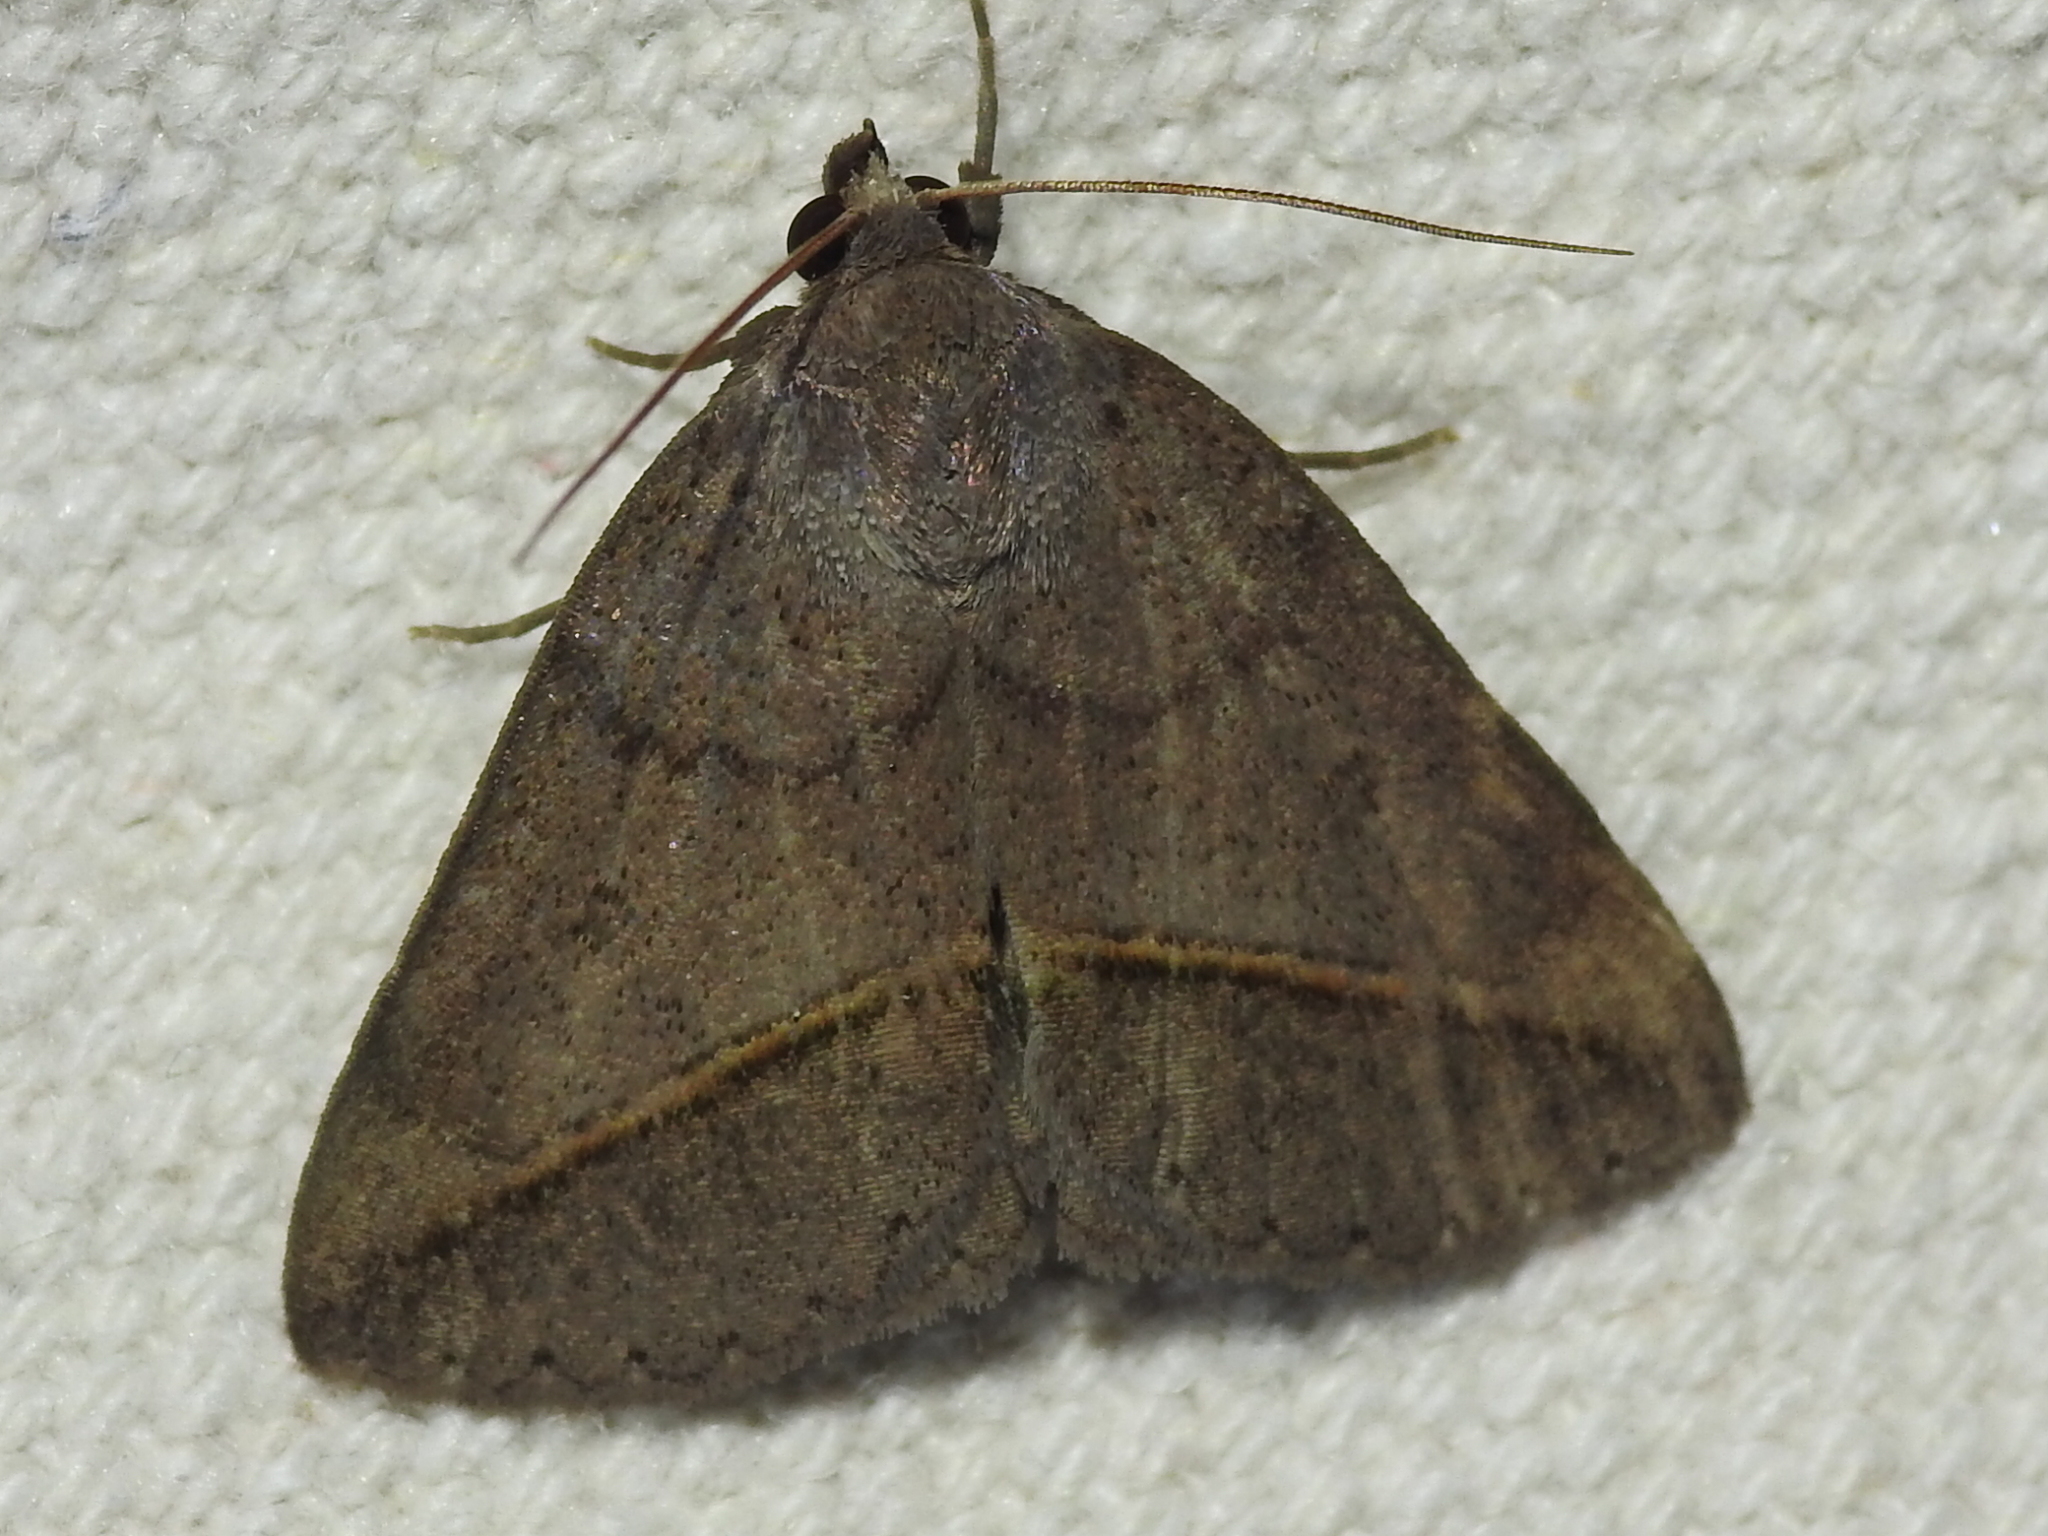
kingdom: Animalia
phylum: Arthropoda
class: Insecta
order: Lepidoptera
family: Erebidae
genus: Argyrostrotis
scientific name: Argyrostrotis flavistriaria
